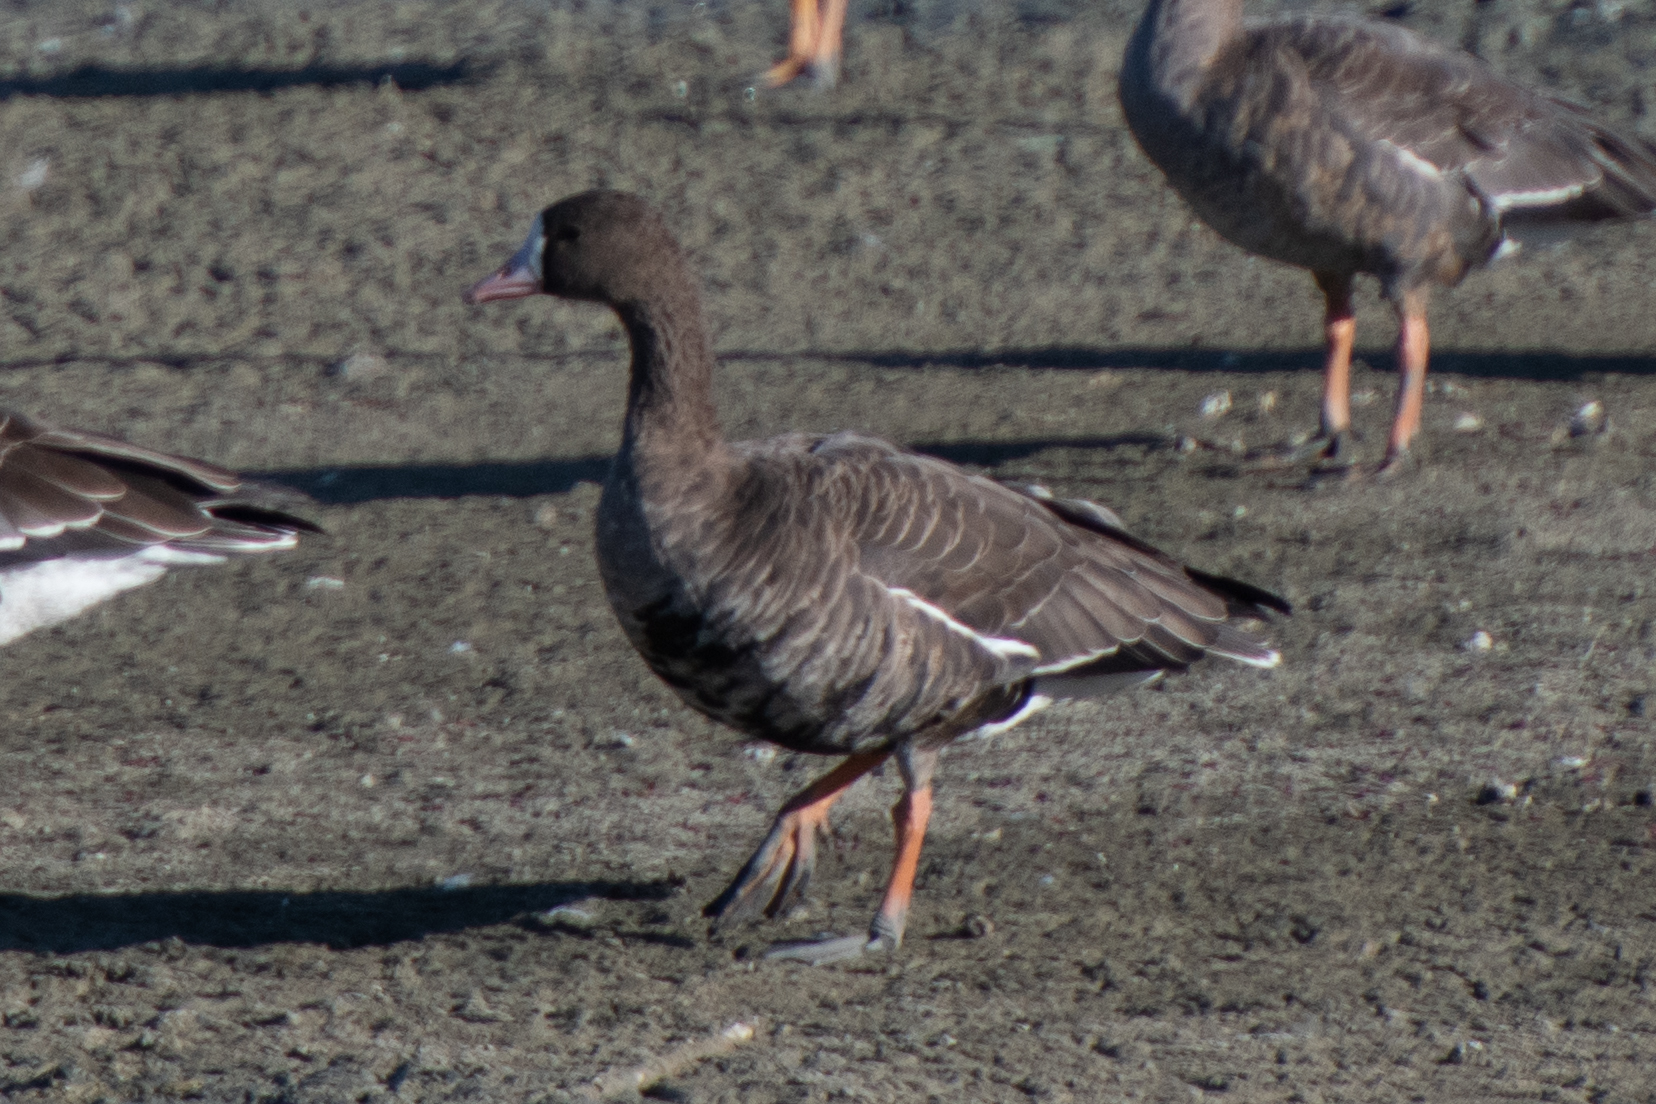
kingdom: Animalia
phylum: Chordata
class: Aves
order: Anseriformes
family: Anatidae
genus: Anser
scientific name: Anser albifrons
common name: Greater white-fronted goose
